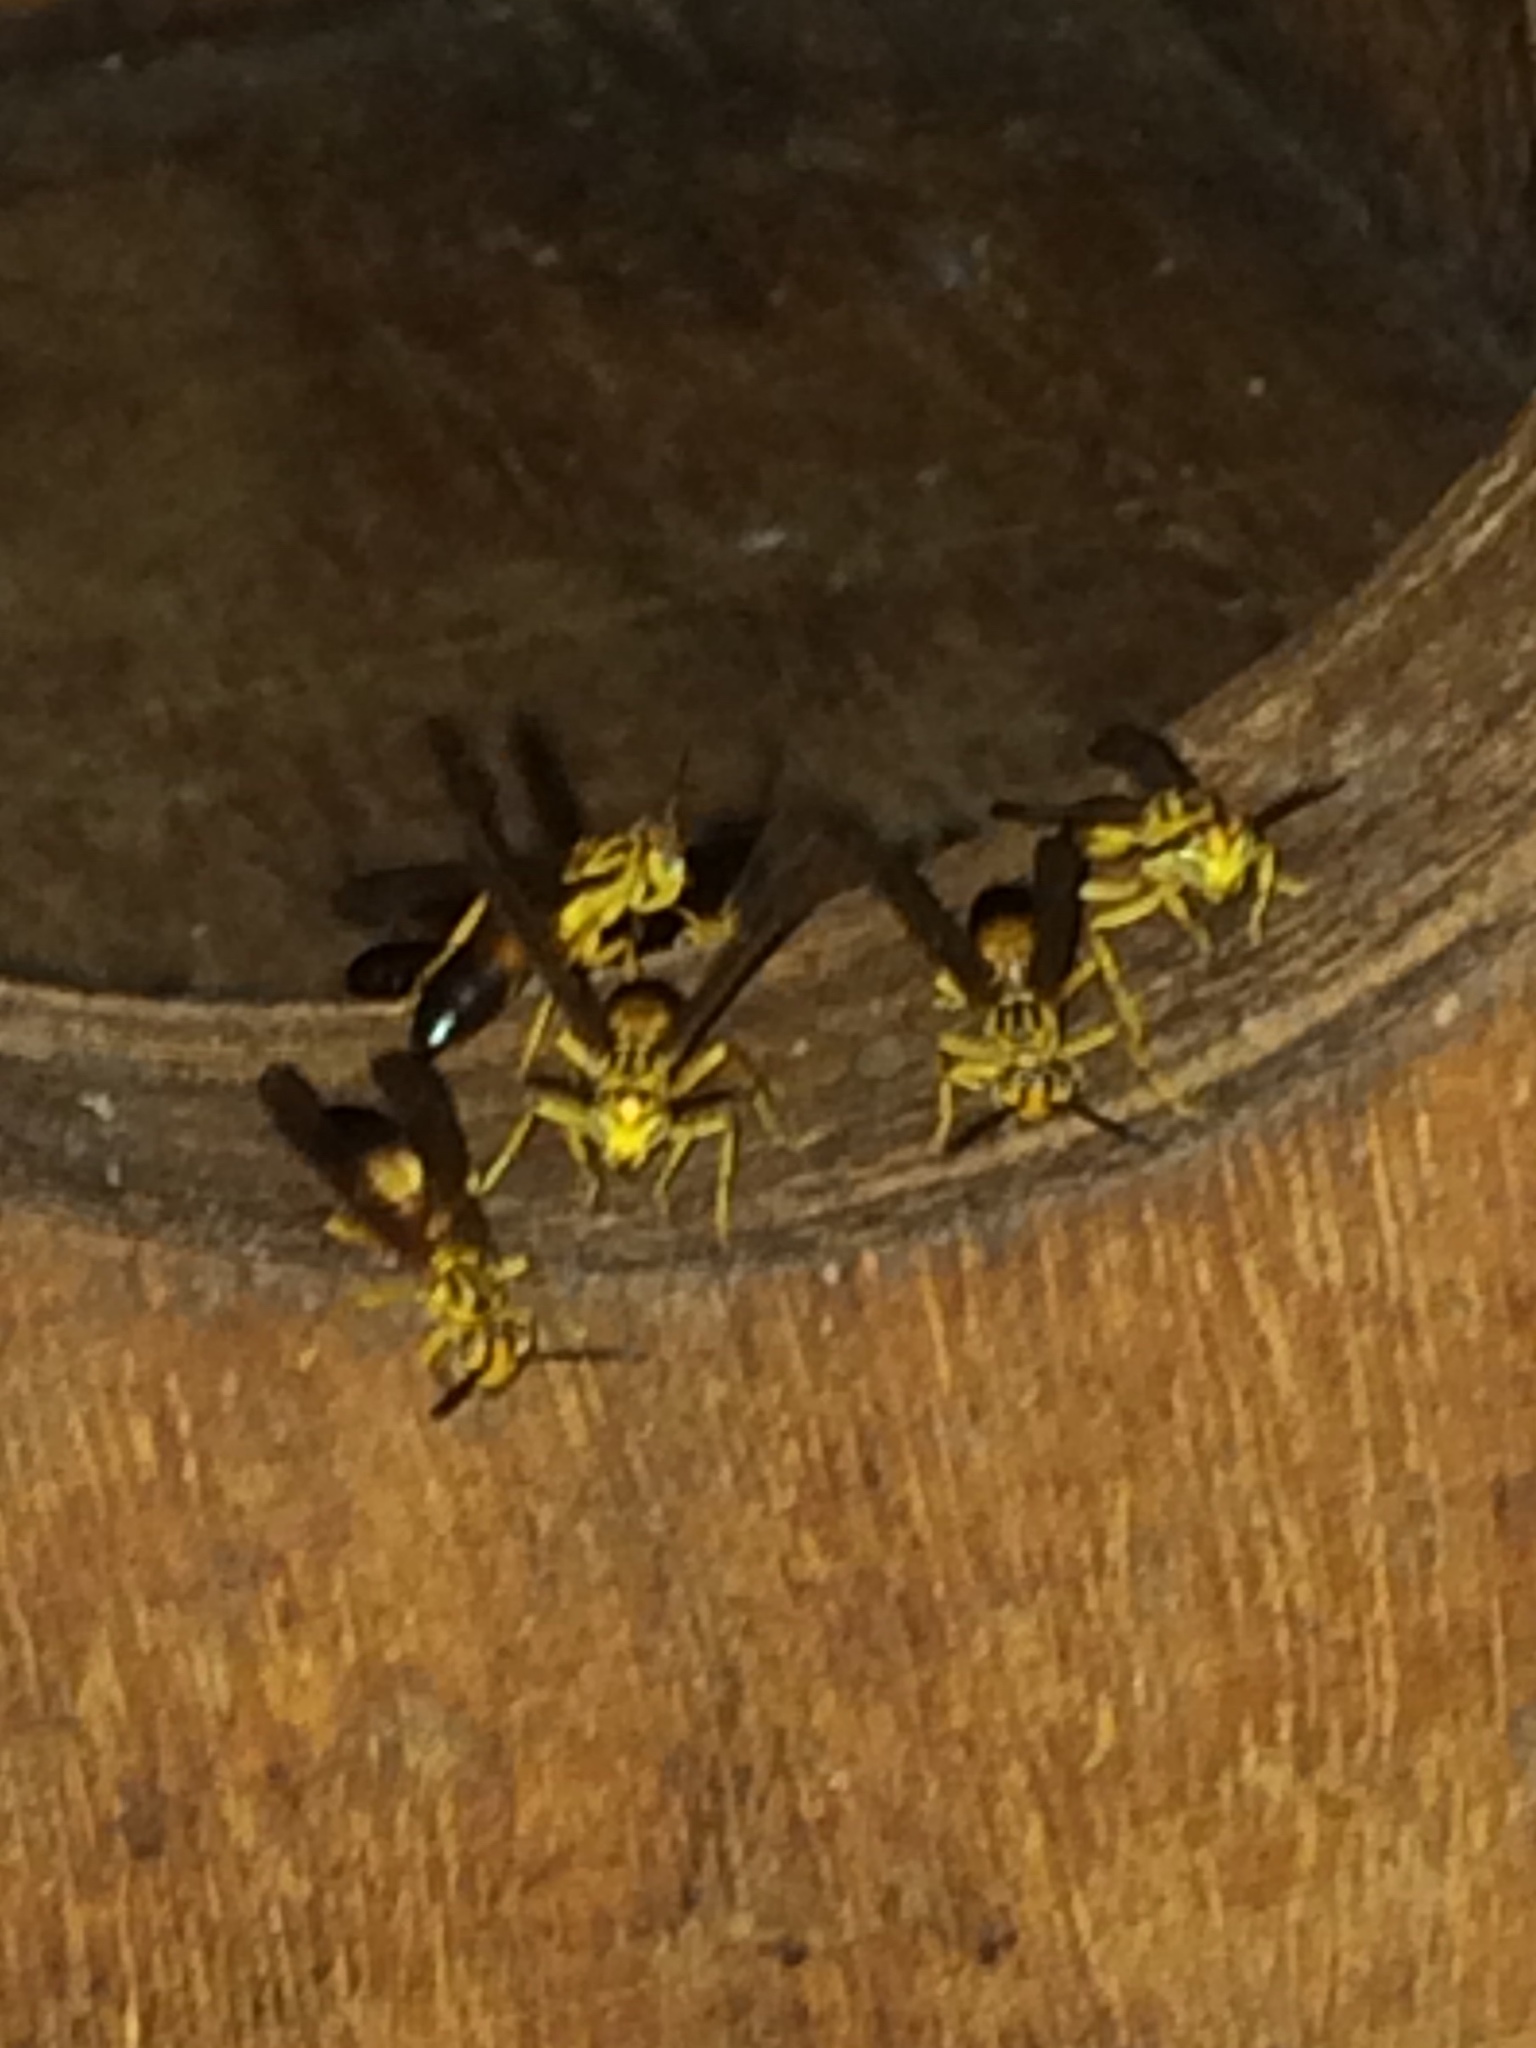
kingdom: Animalia
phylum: Arthropoda
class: Insecta
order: Hymenoptera
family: Vespidae
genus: Agelaia
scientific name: Agelaia pallipes
